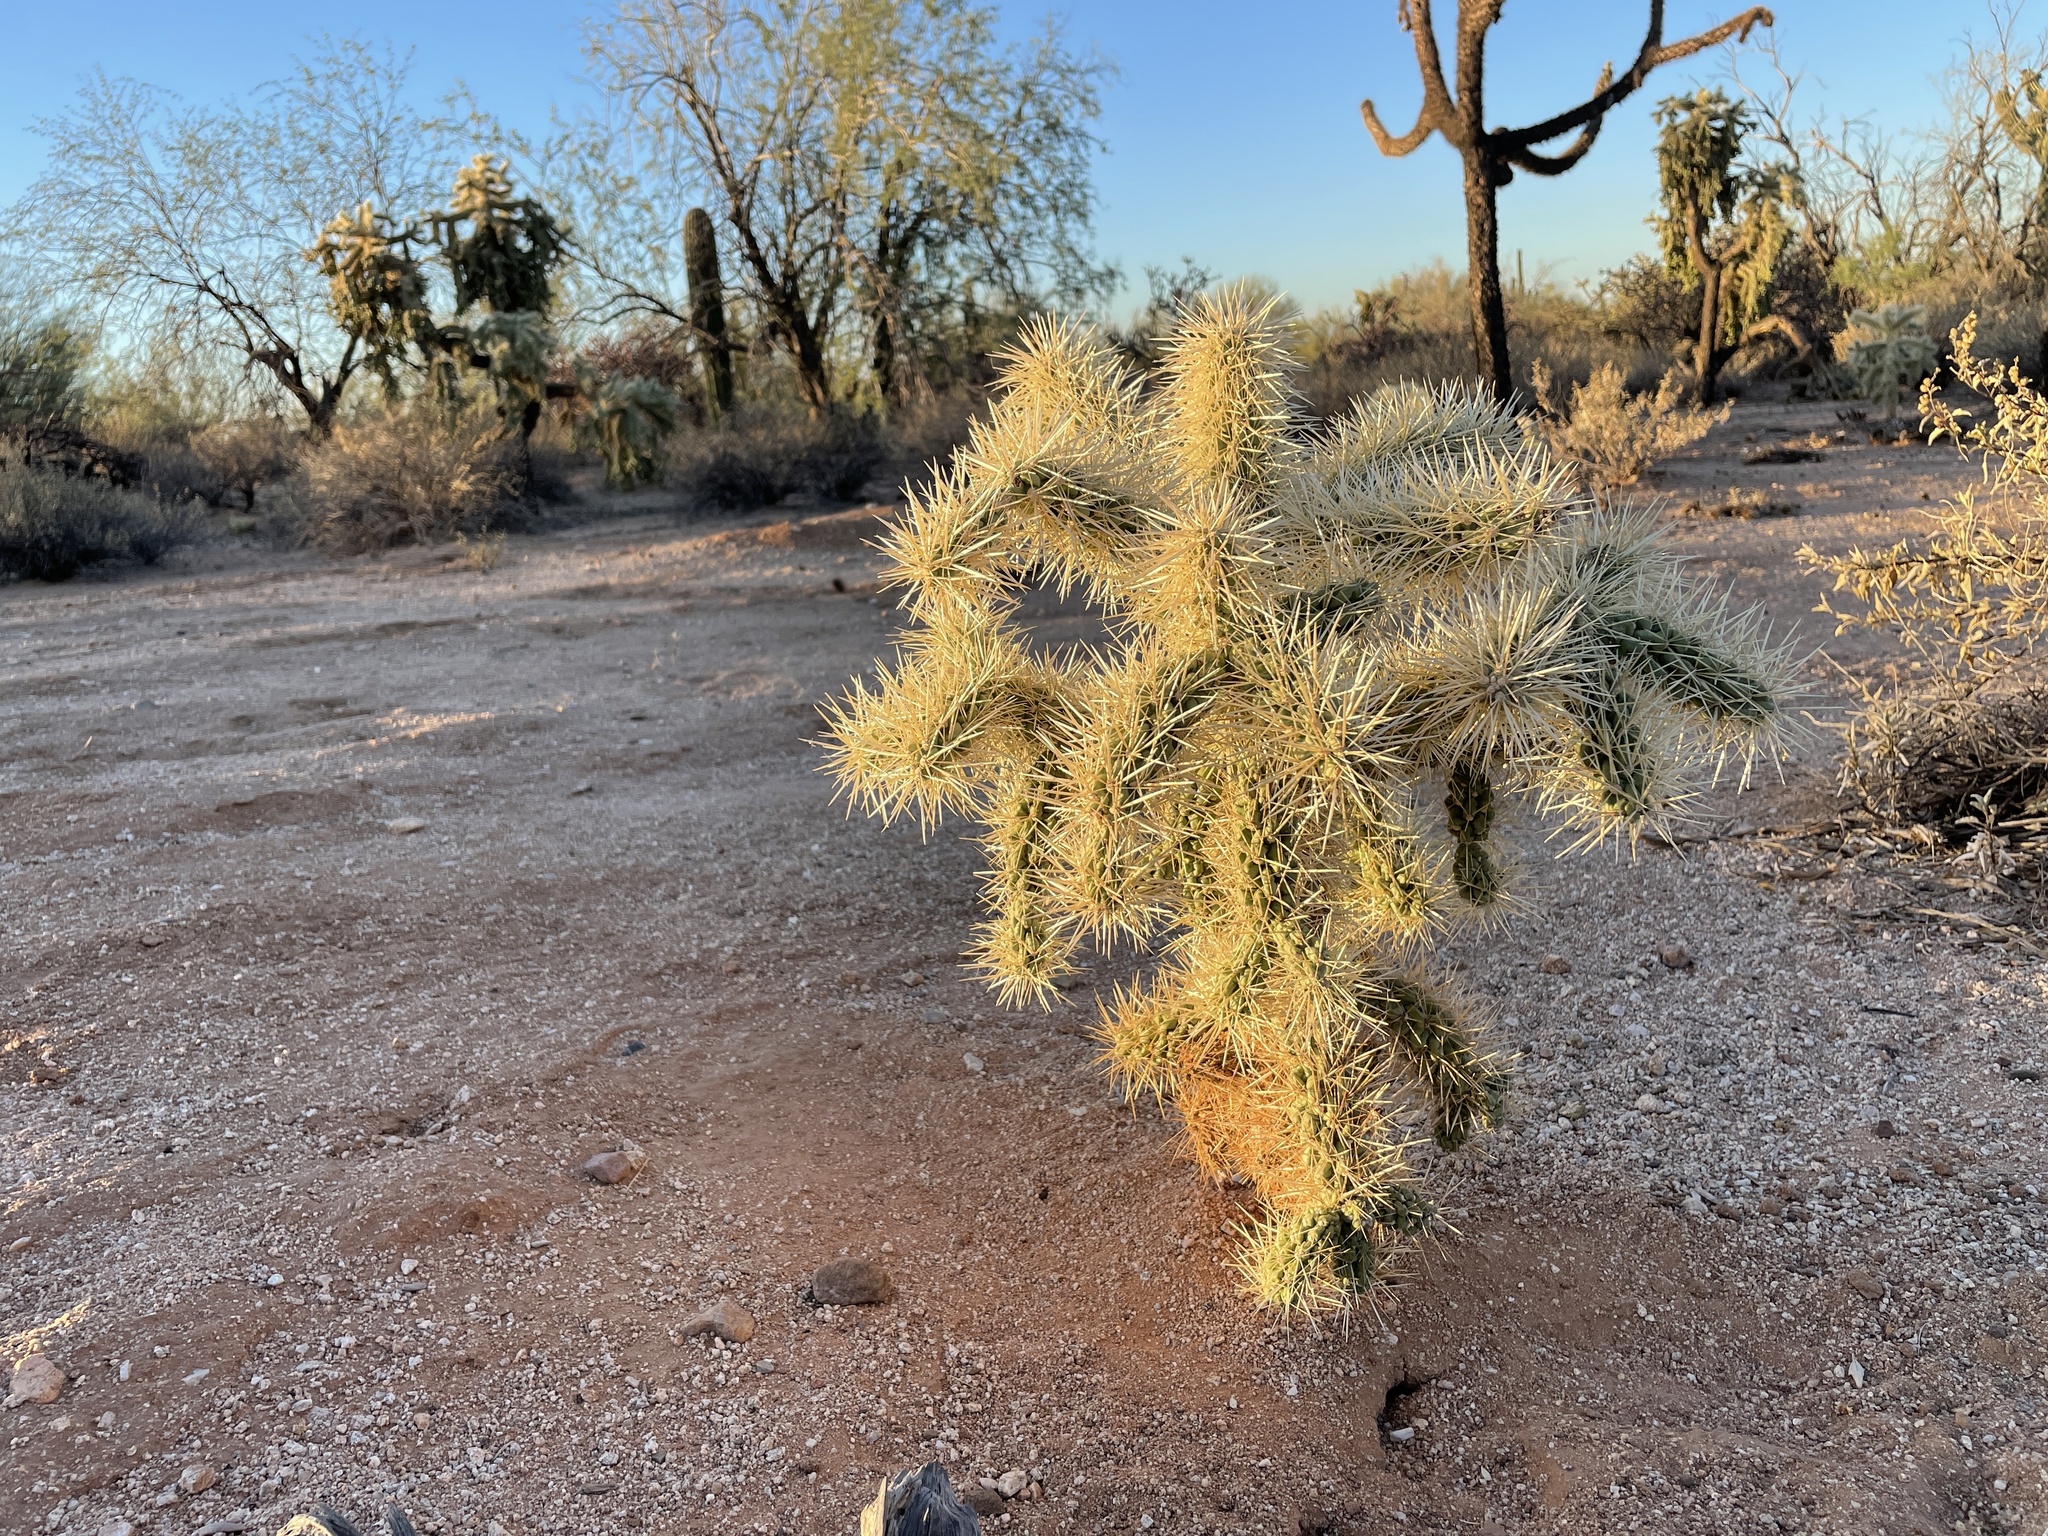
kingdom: Plantae
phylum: Tracheophyta
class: Magnoliopsida
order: Caryophyllales
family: Cactaceae
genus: Cylindropuntia
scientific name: Cylindropuntia fulgida
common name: Jumping cholla
